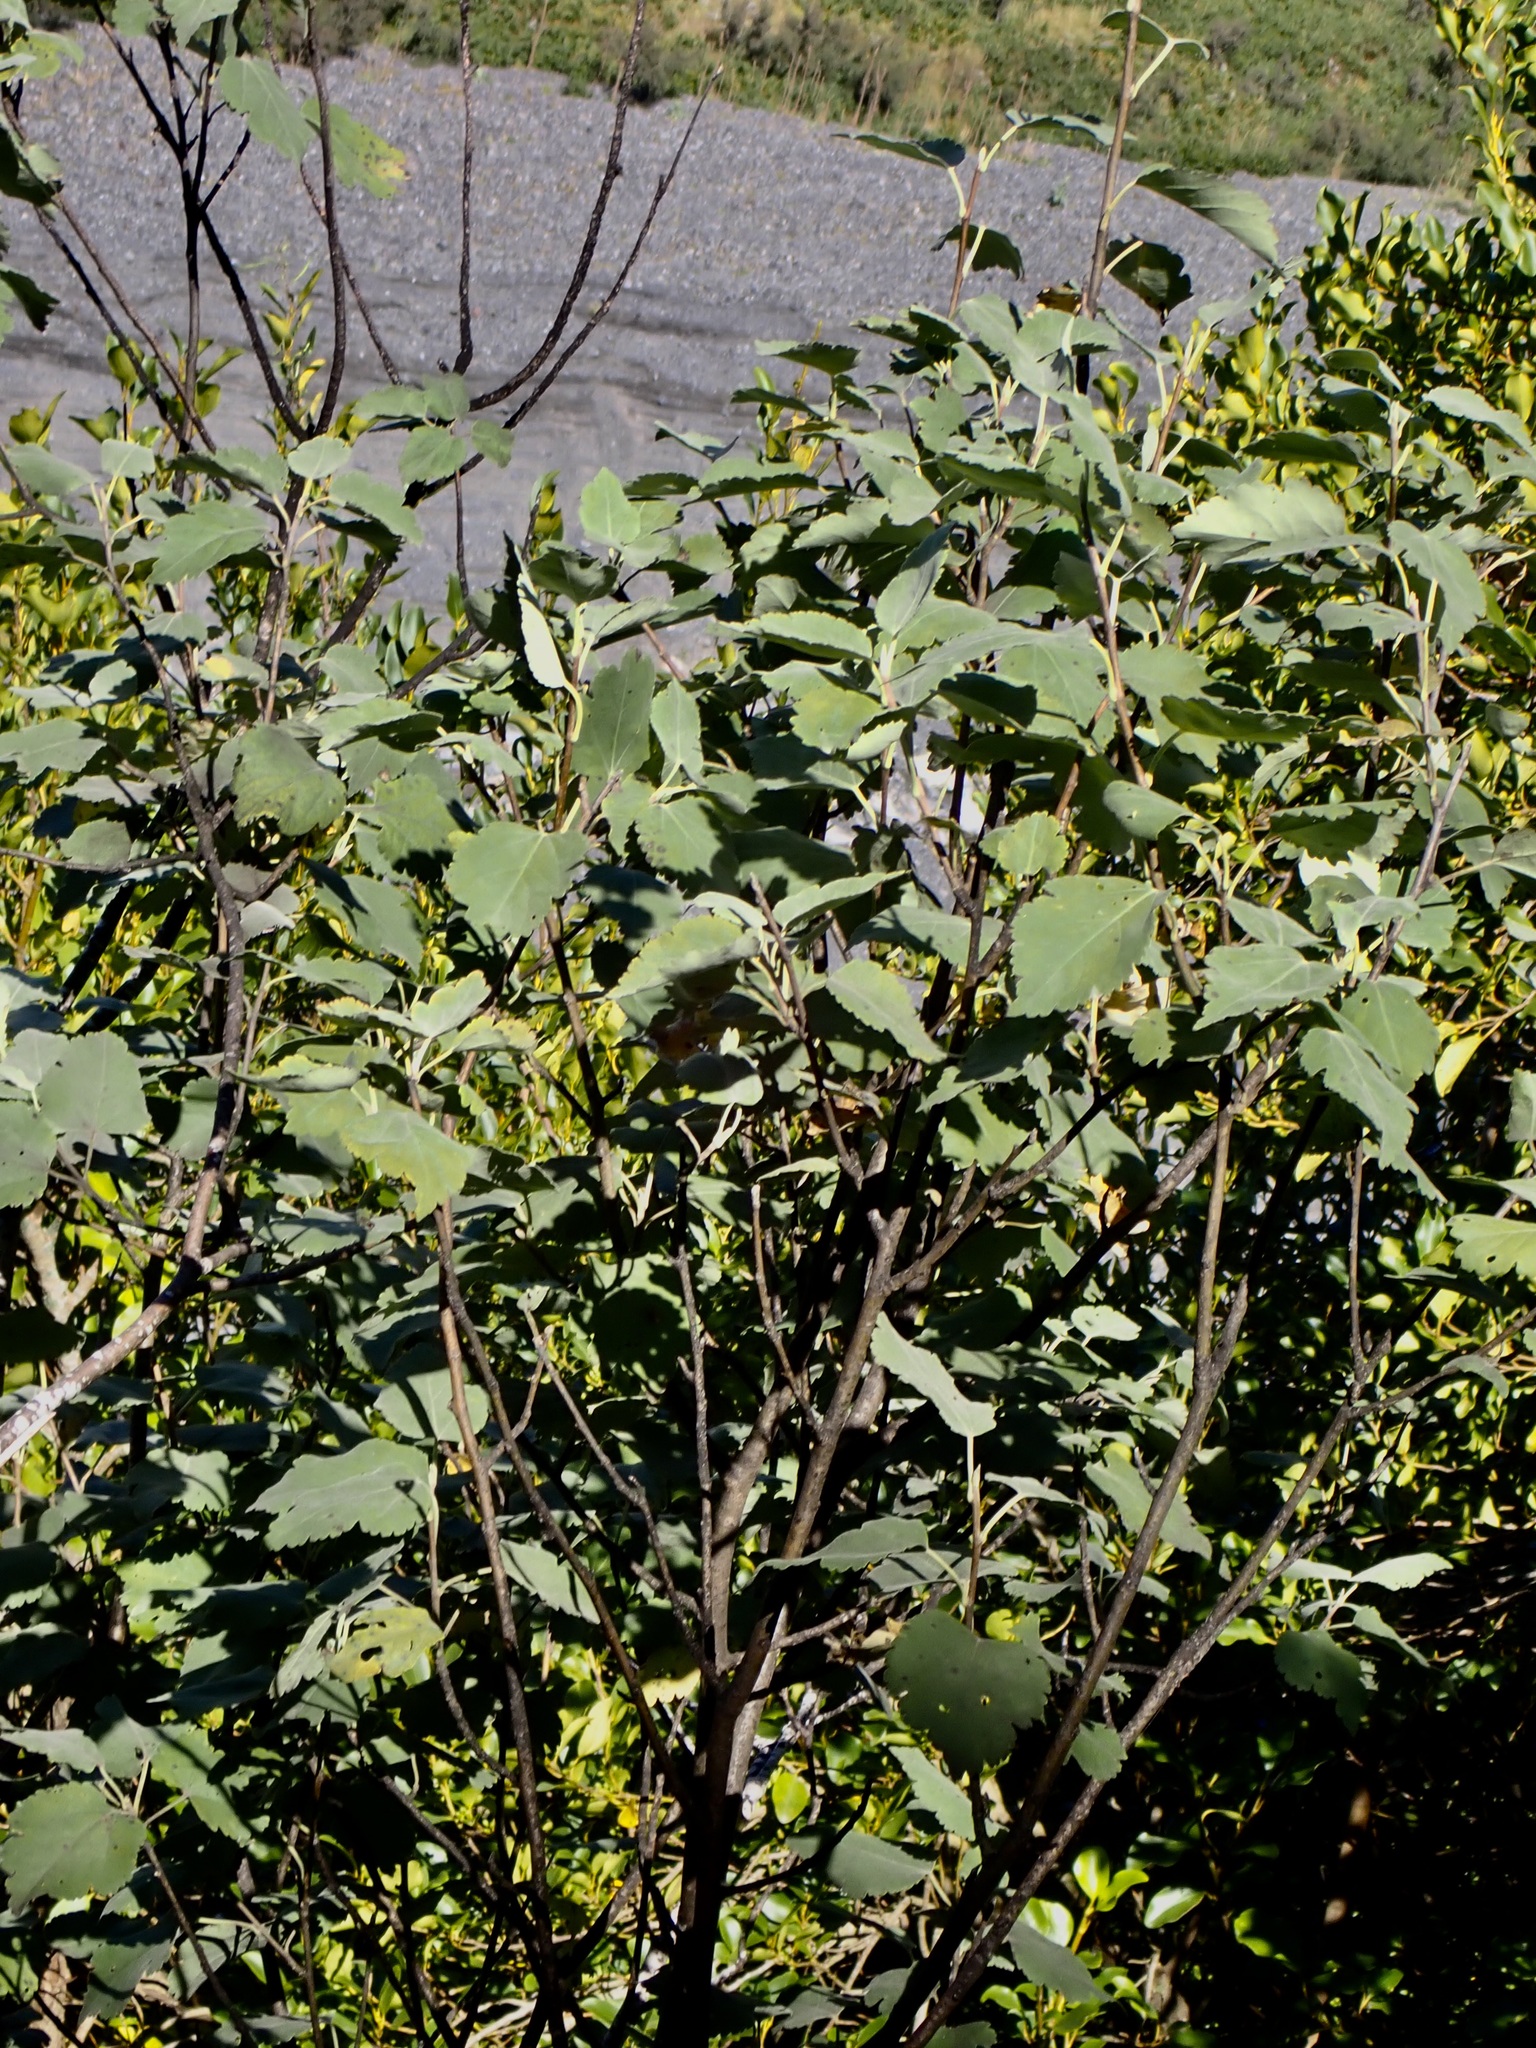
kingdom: Plantae
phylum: Tracheophyta
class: Magnoliopsida
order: Malvales
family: Malvaceae
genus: Hoheria
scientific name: Hoheria glabrata
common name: Mountain-ribbon
